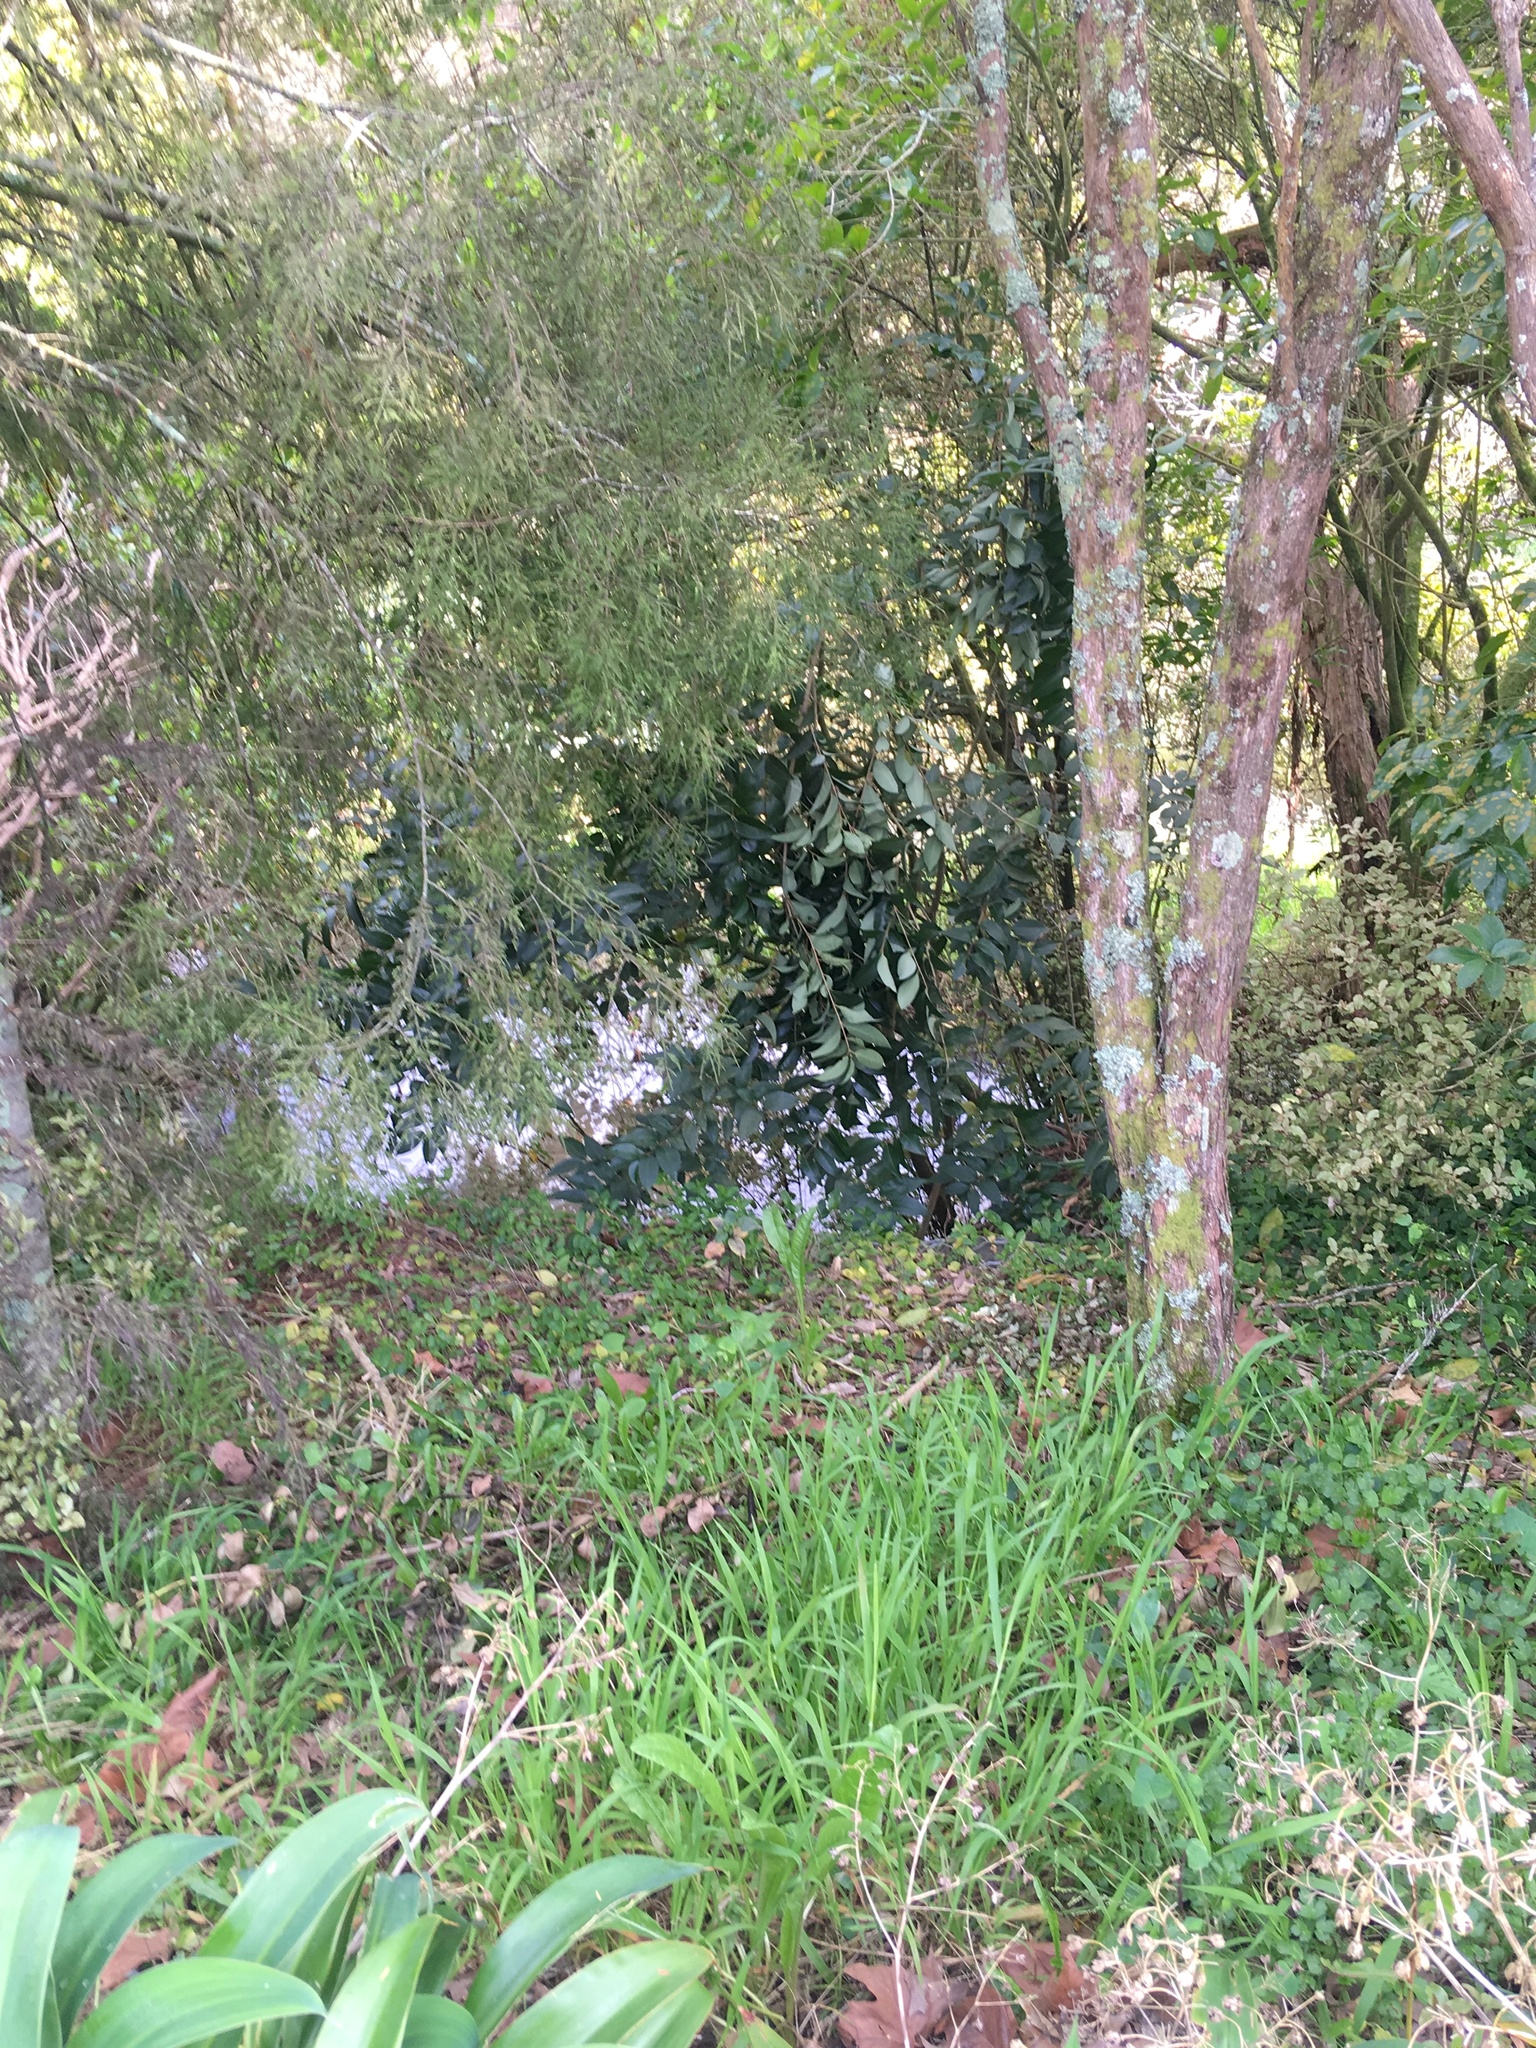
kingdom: Plantae
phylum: Tracheophyta
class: Magnoliopsida
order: Lamiales
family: Oleaceae
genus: Ligustrum
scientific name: Ligustrum lucidum
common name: Glossy privet
